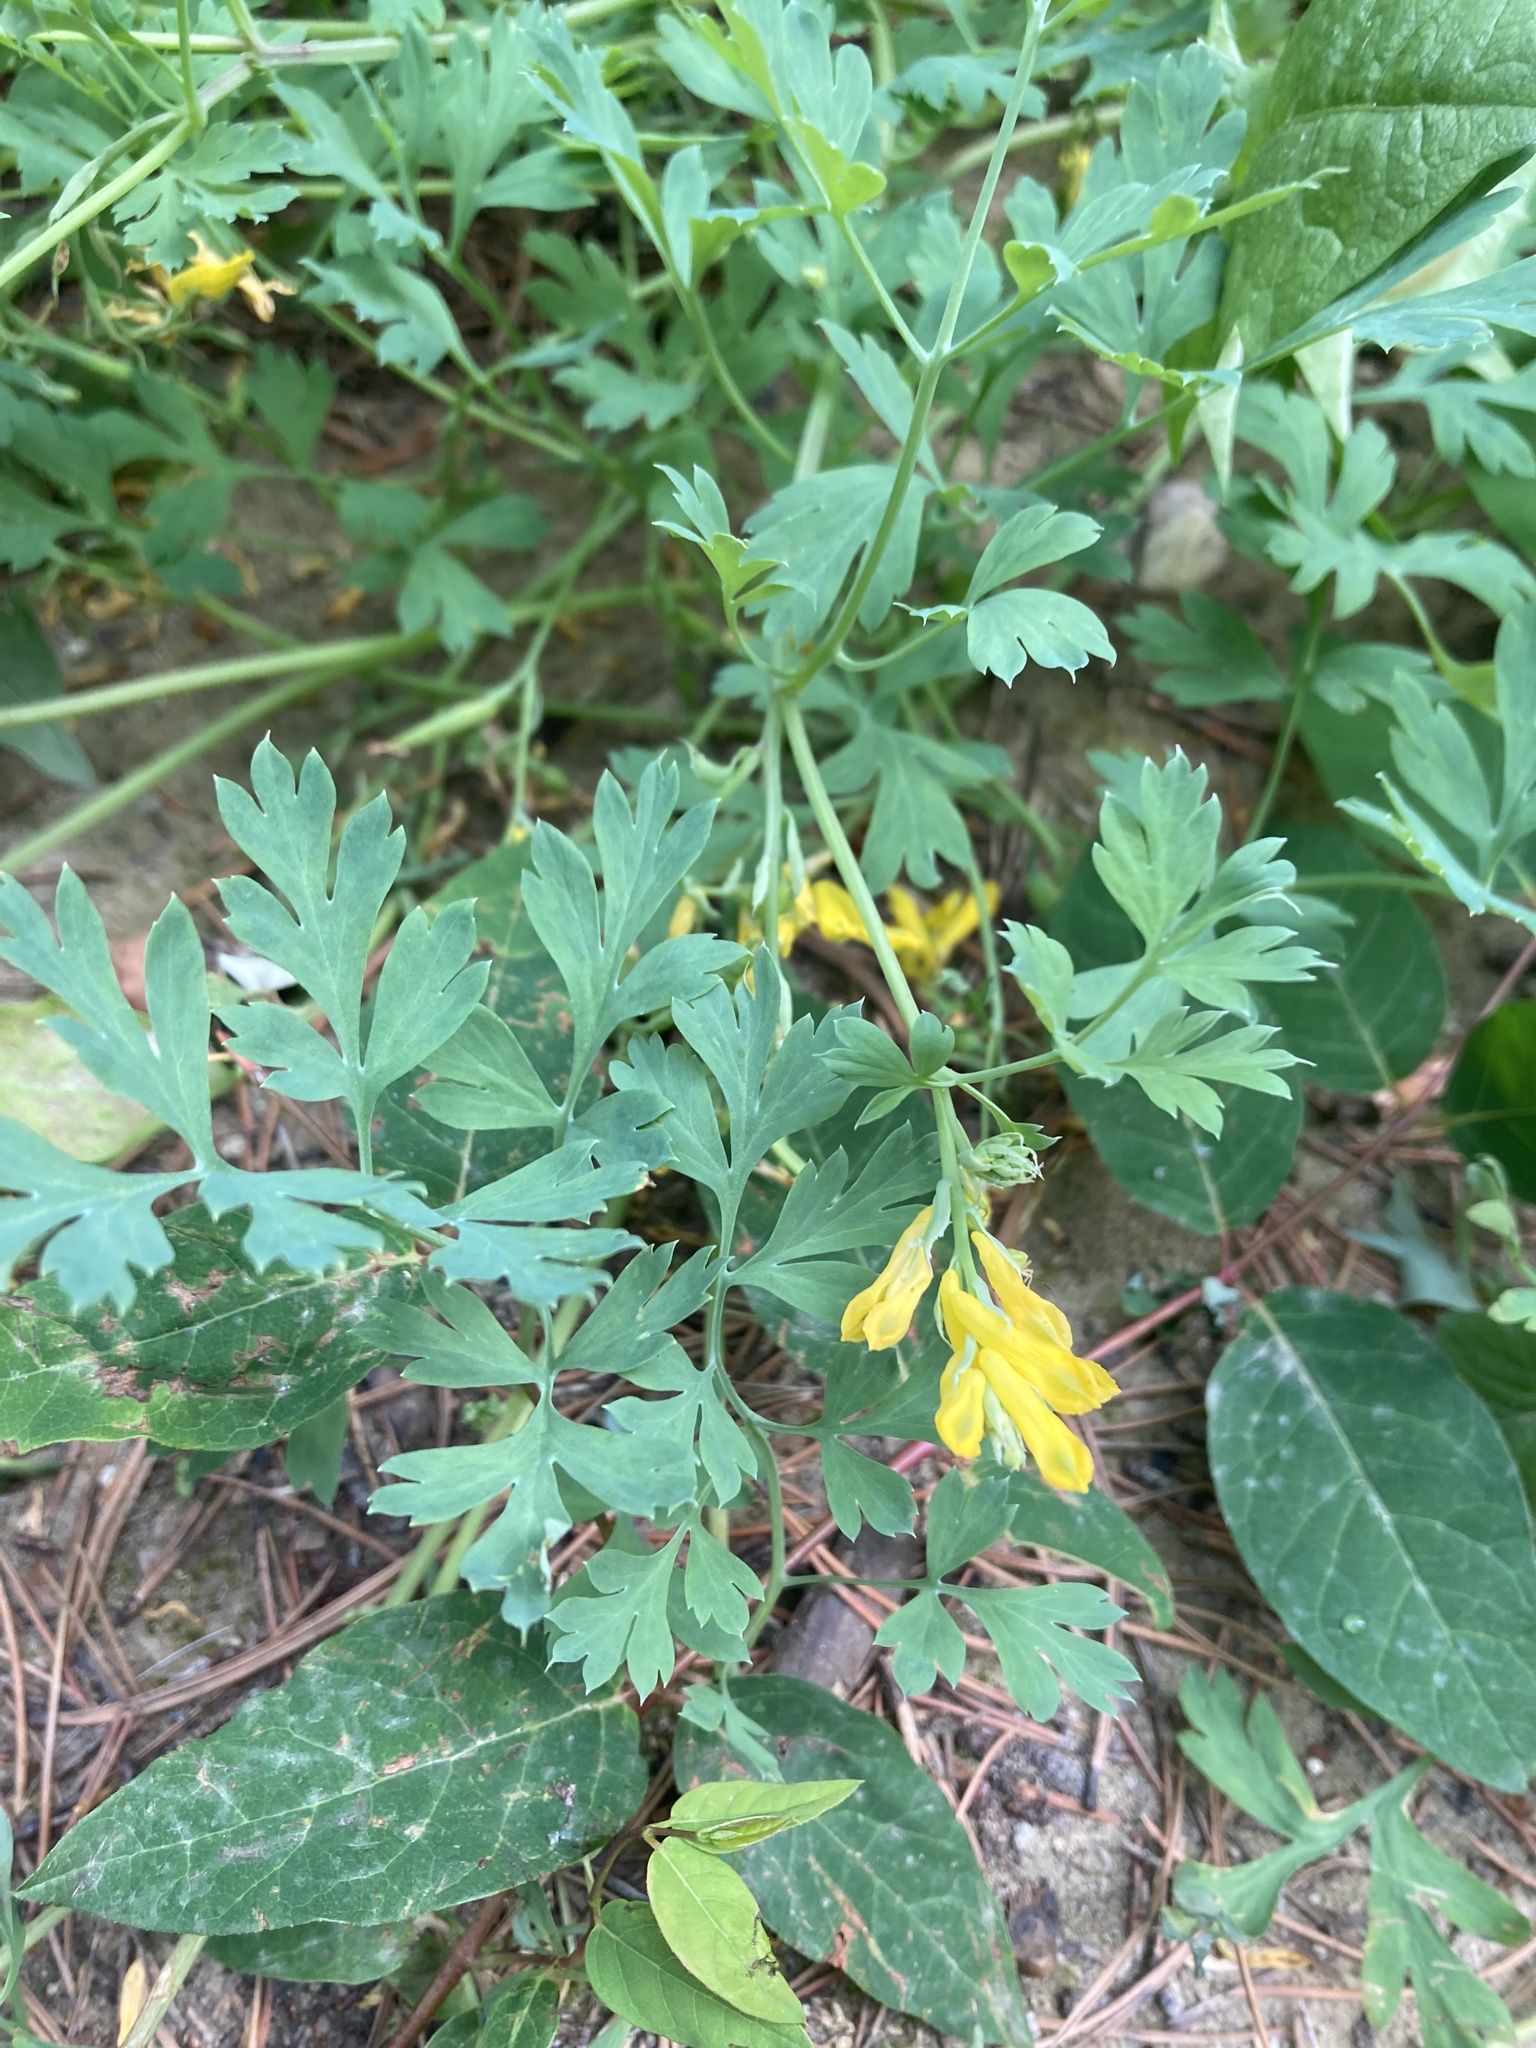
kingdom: Plantae
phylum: Tracheophyta
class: Magnoliopsida
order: Ranunculales
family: Papaveraceae
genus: Corydalis
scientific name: Corydalis aurea
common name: Golden corydalis
